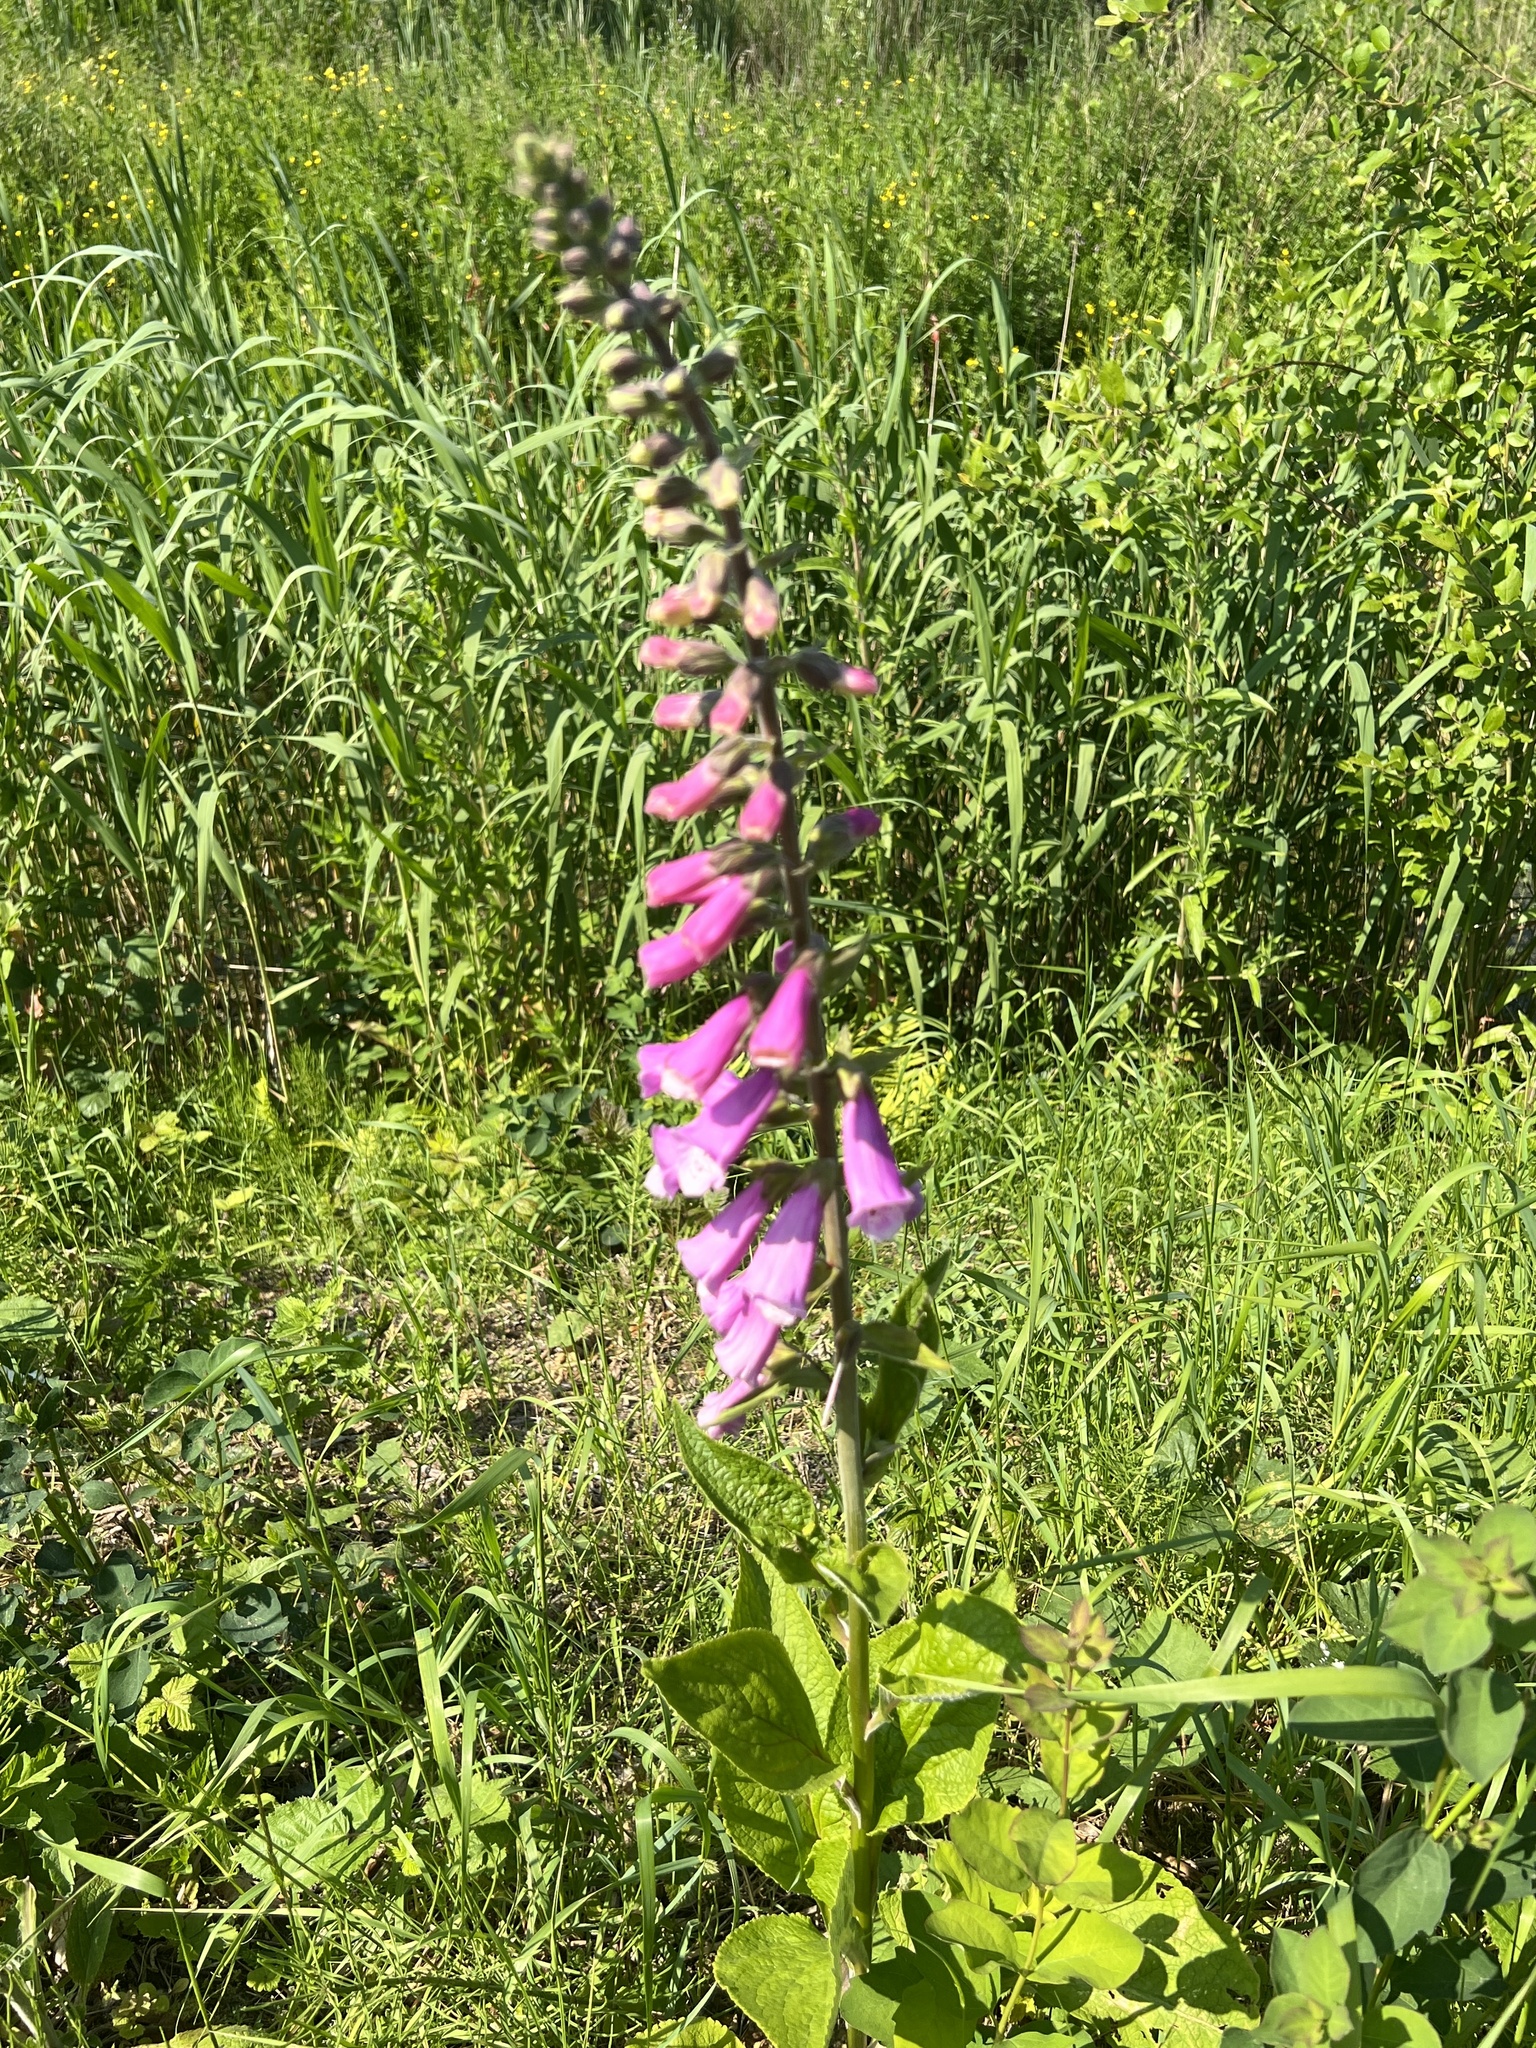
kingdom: Plantae
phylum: Tracheophyta
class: Magnoliopsida
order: Lamiales
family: Plantaginaceae
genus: Digitalis
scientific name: Digitalis purpurea
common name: Foxglove
